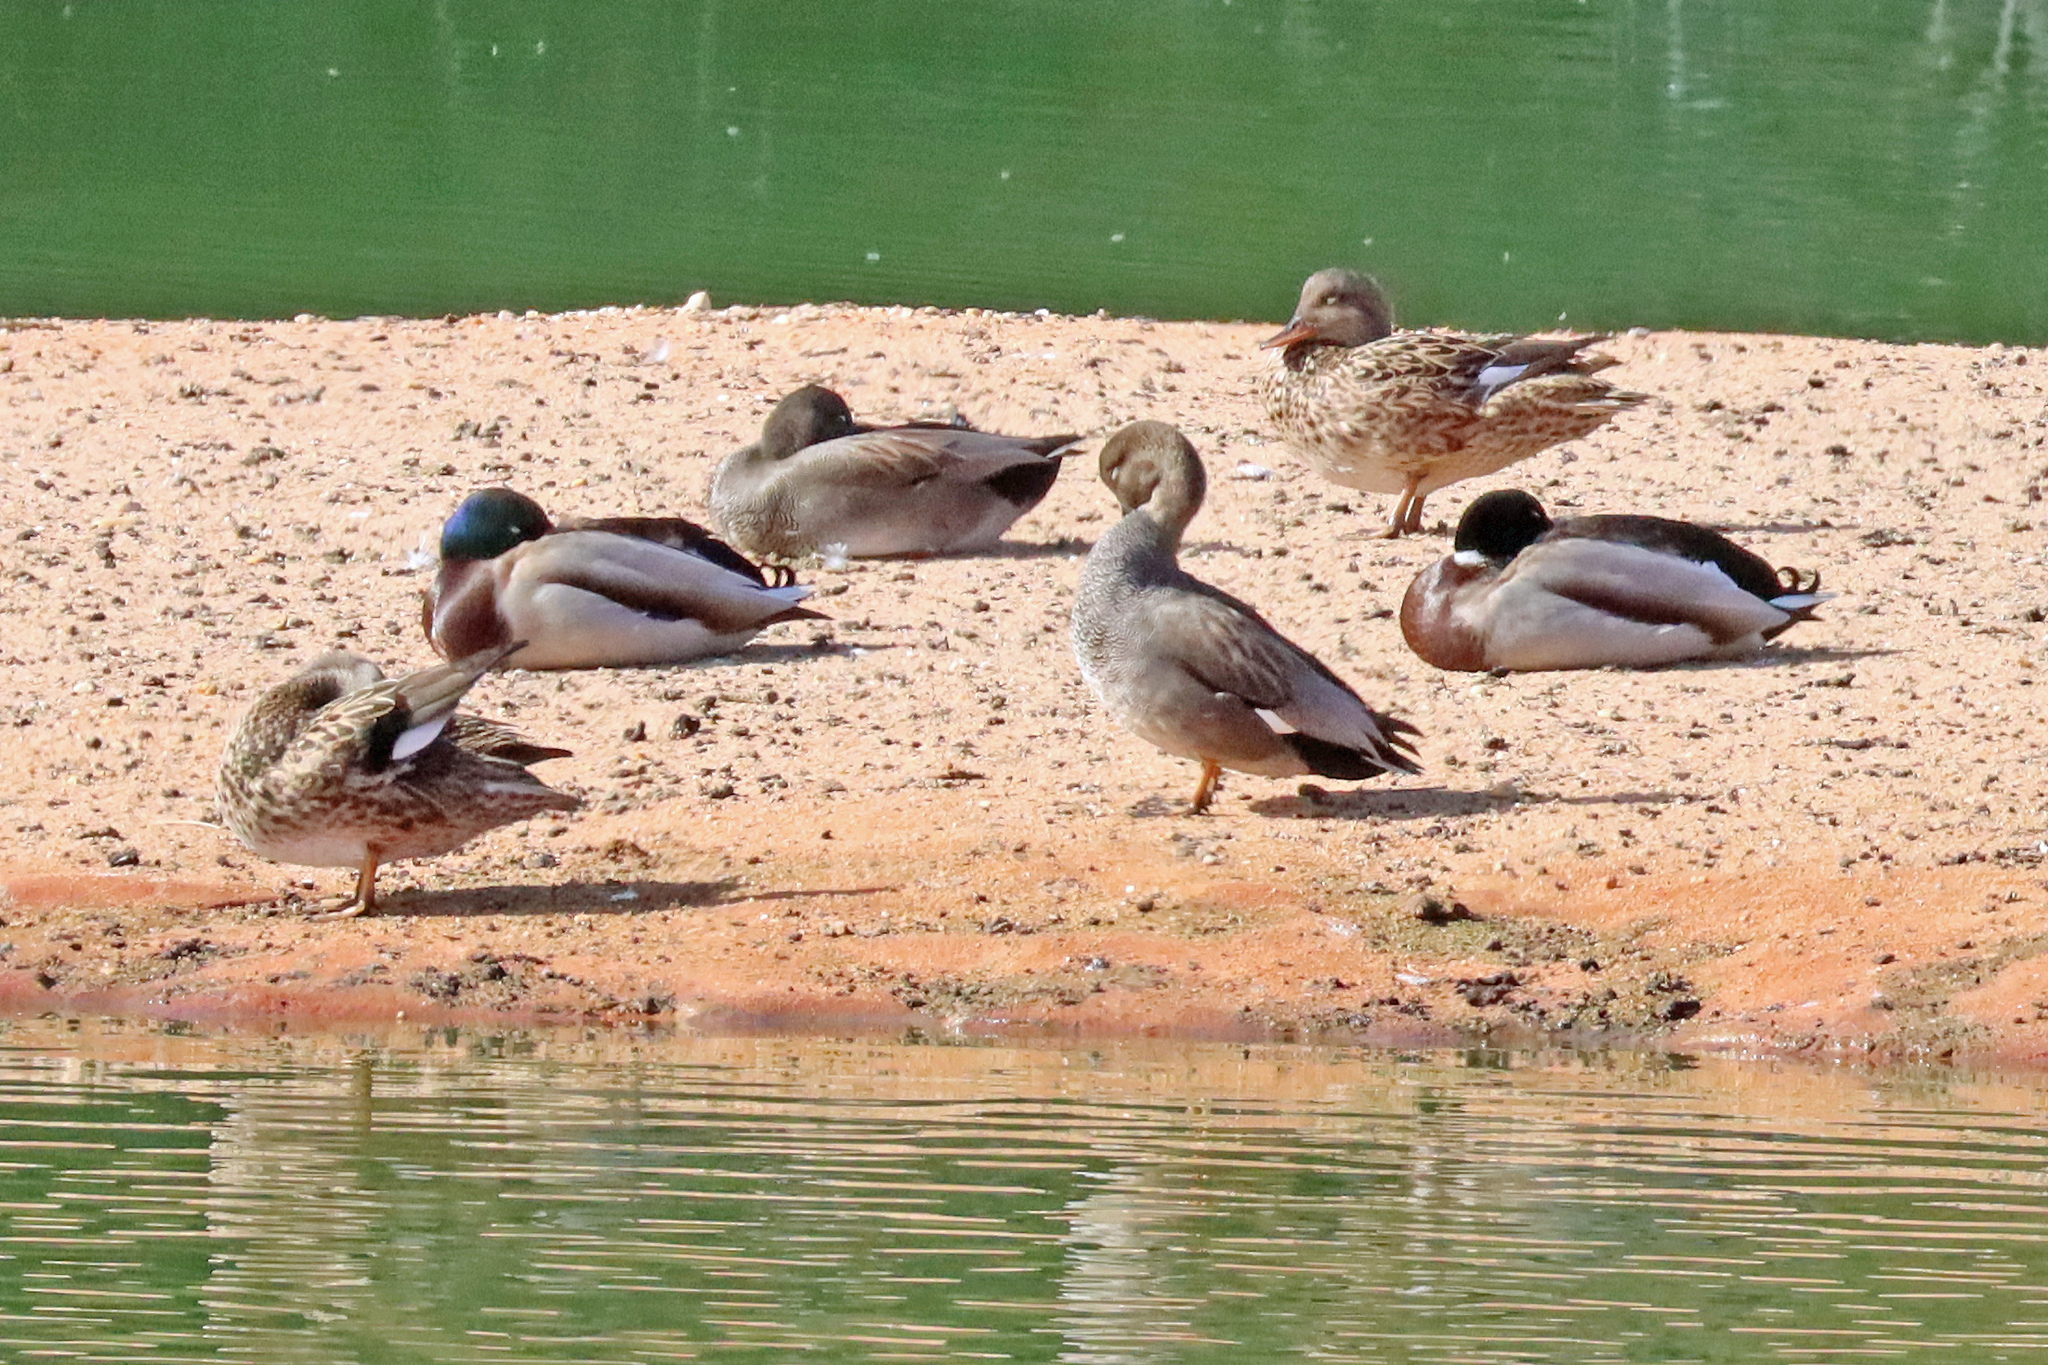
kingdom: Animalia
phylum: Chordata
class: Aves
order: Anseriformes
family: Anatidae
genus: Mareca
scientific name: Mareca strepera
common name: Gadwall
